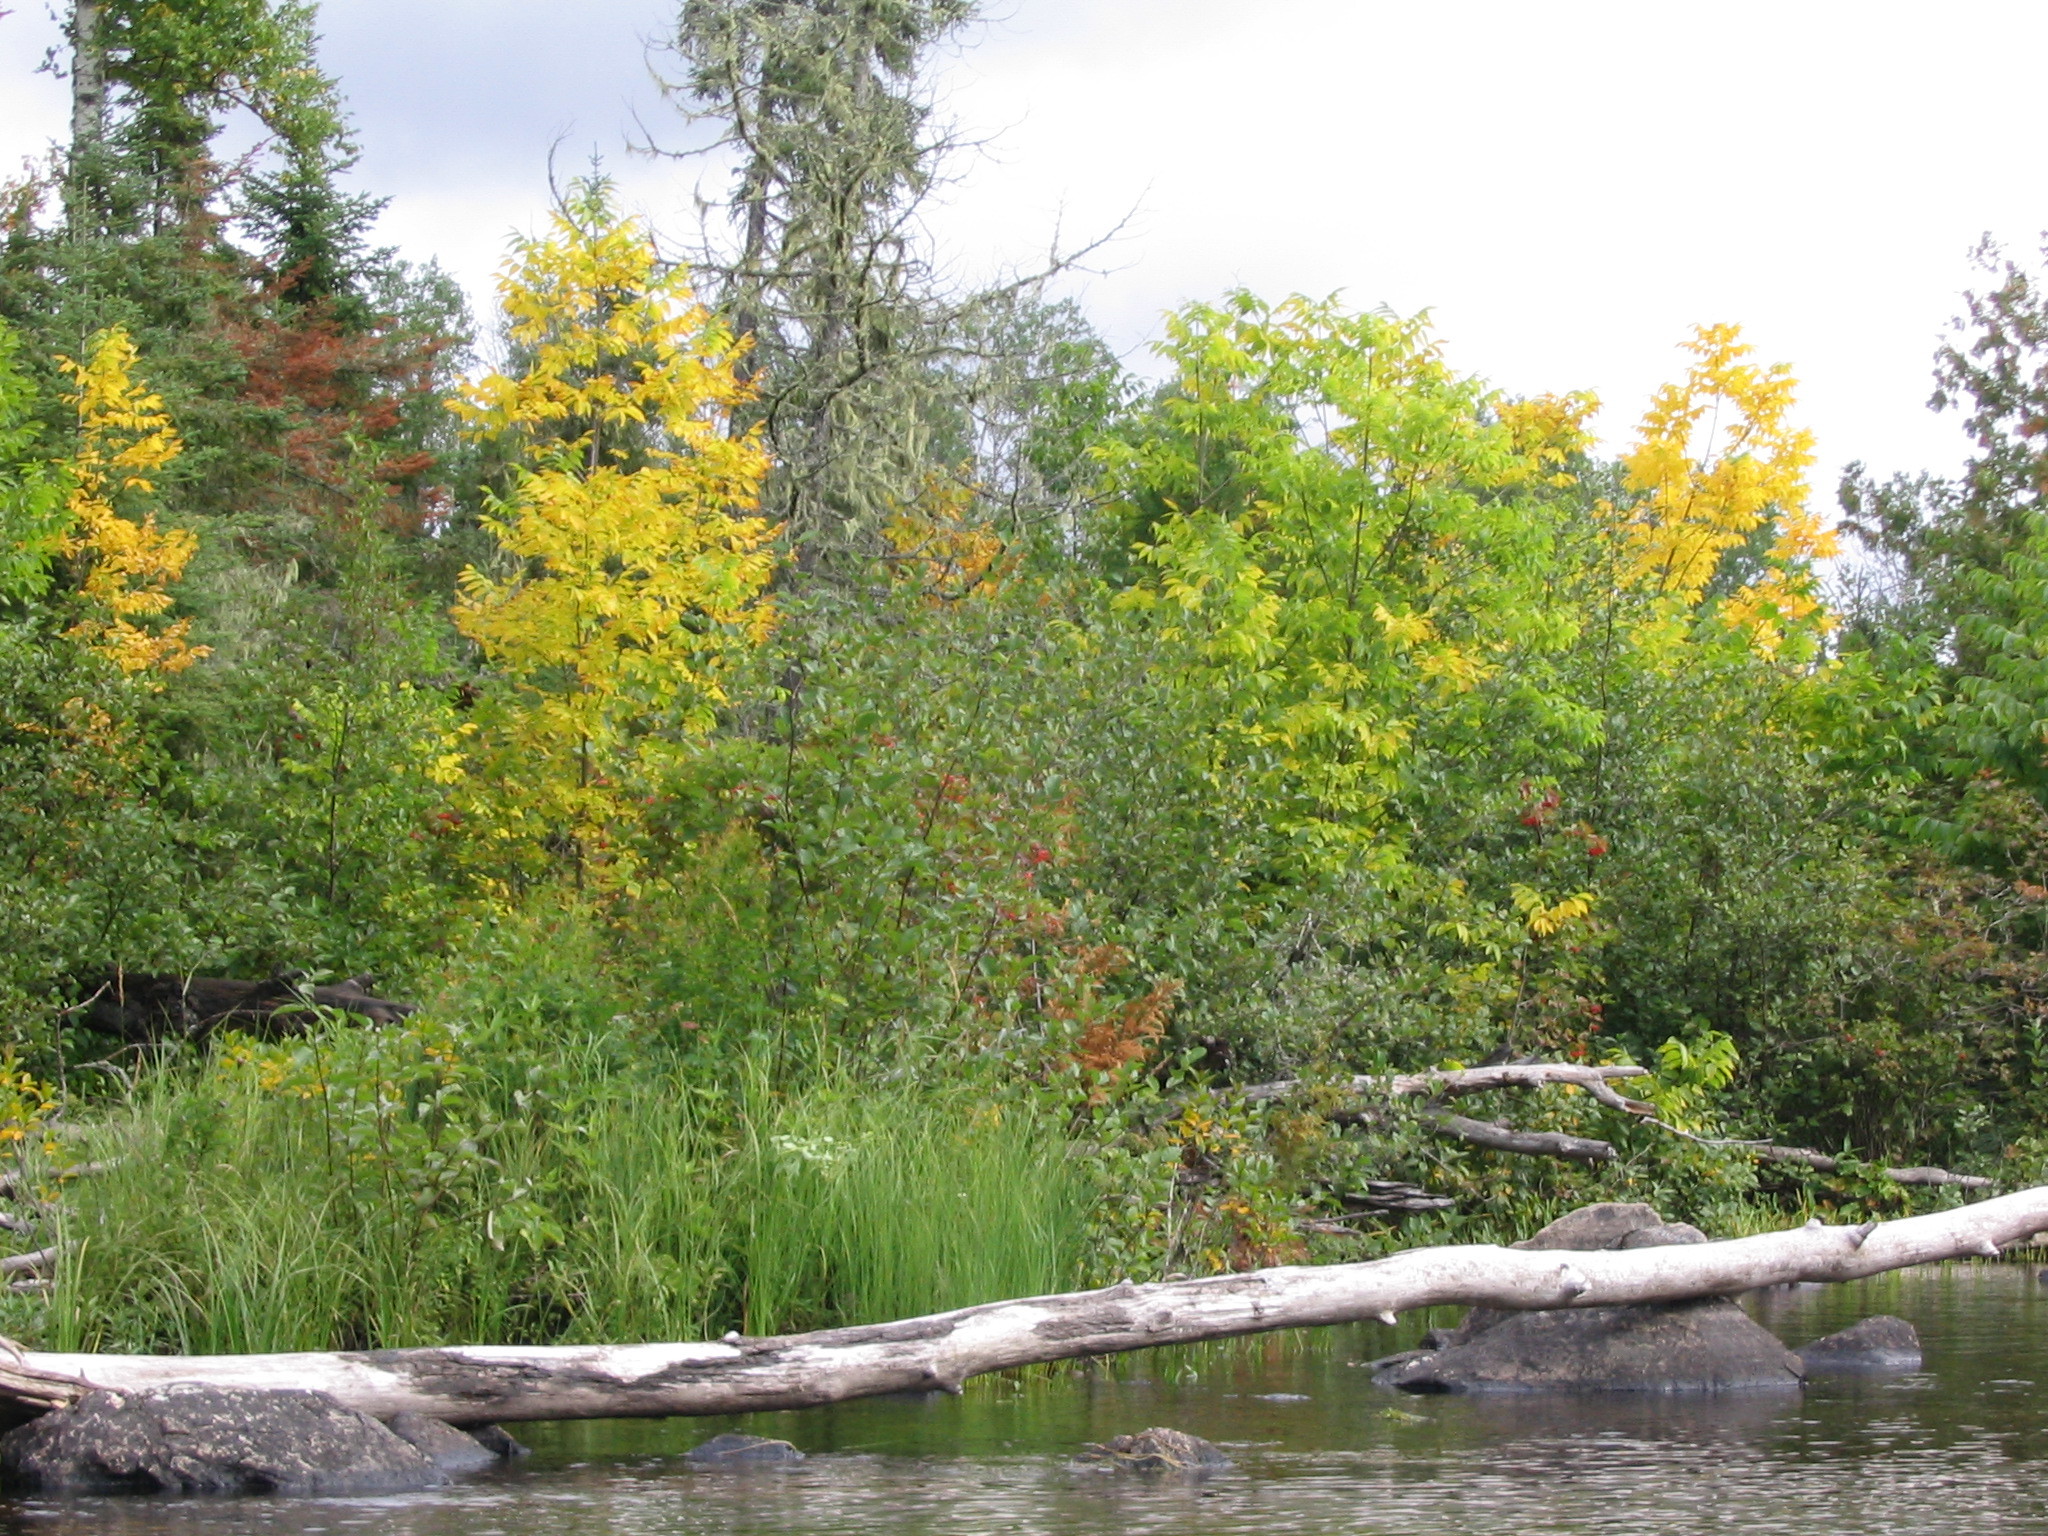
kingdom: Plantae
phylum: Tracheophyta
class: Magnoliopsida
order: Lamiales
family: Oleaceae
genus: Fraxinus
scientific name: Fraxinus nigra
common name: Black ash
